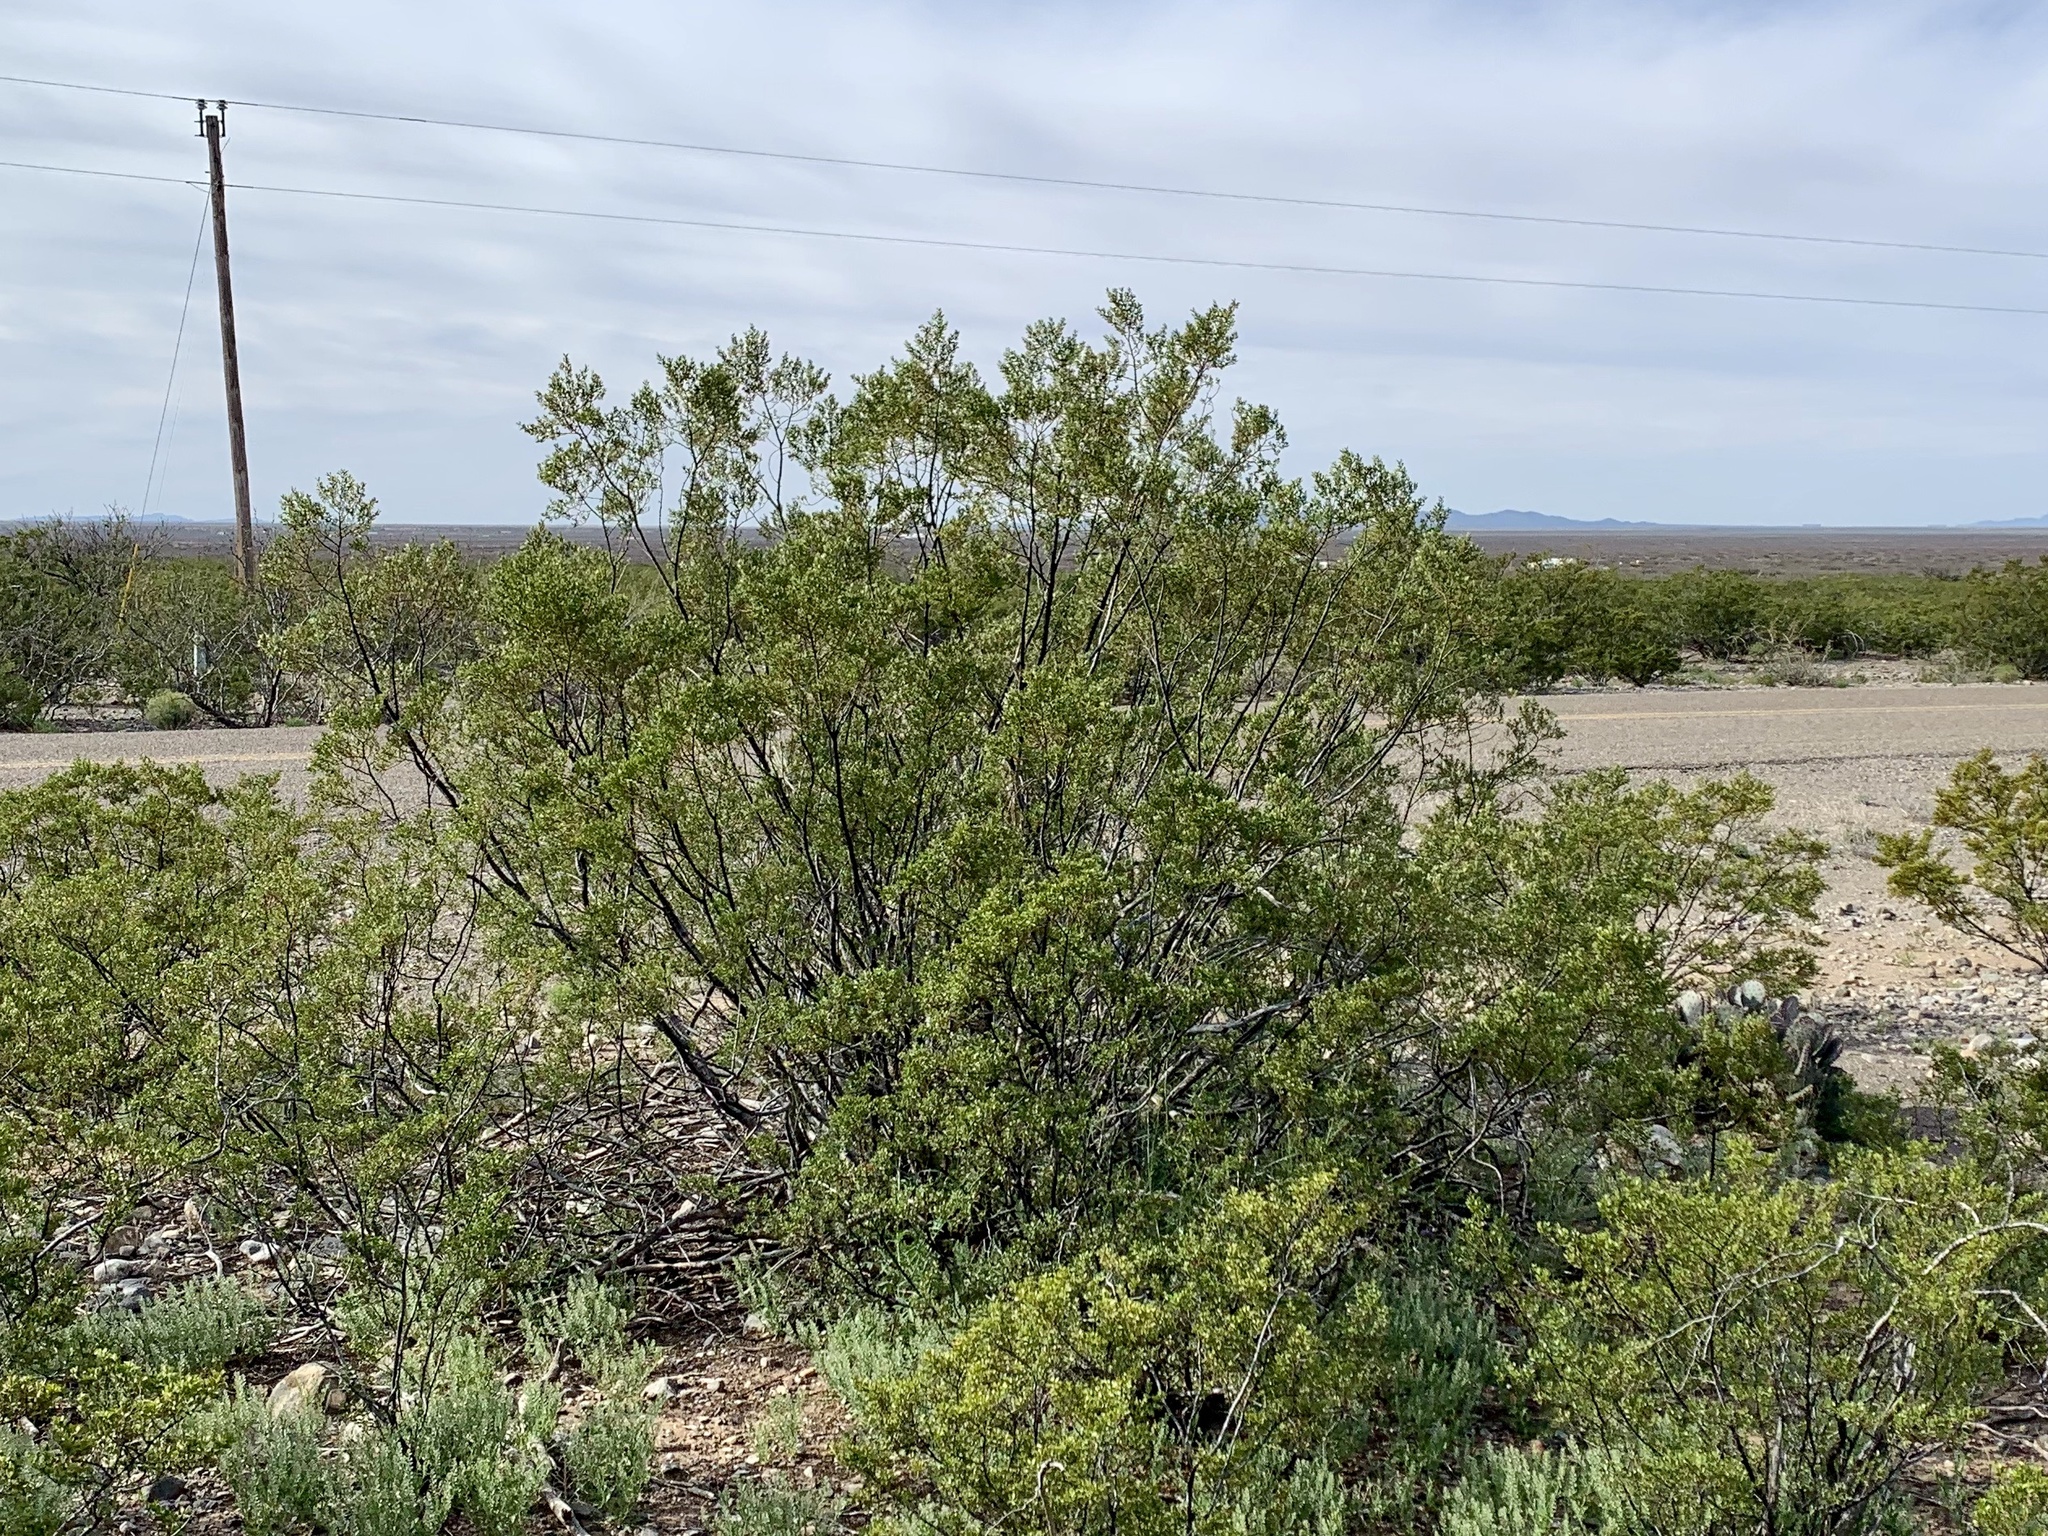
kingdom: Plantae
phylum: Tracheophyta
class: Magnoliopsida
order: Zygophyllales
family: Zygophyllaceae
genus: Larrea
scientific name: Larrea tridentata
